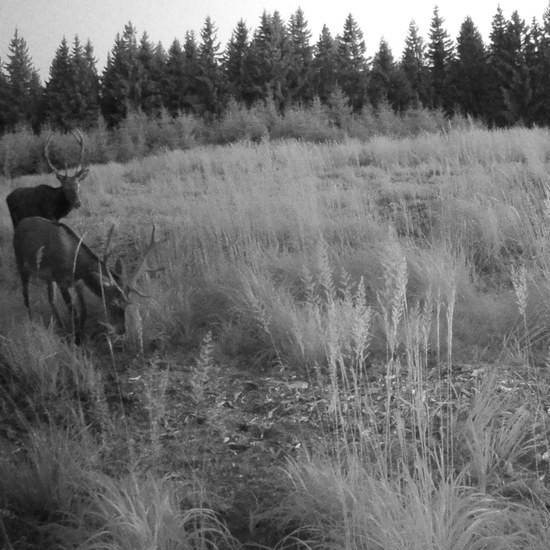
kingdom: Animalia
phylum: Chordata
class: Mammalia
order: Artiodactyla
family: Cervidae
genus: Cervus
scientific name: Cervus elaphus
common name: Red deer
